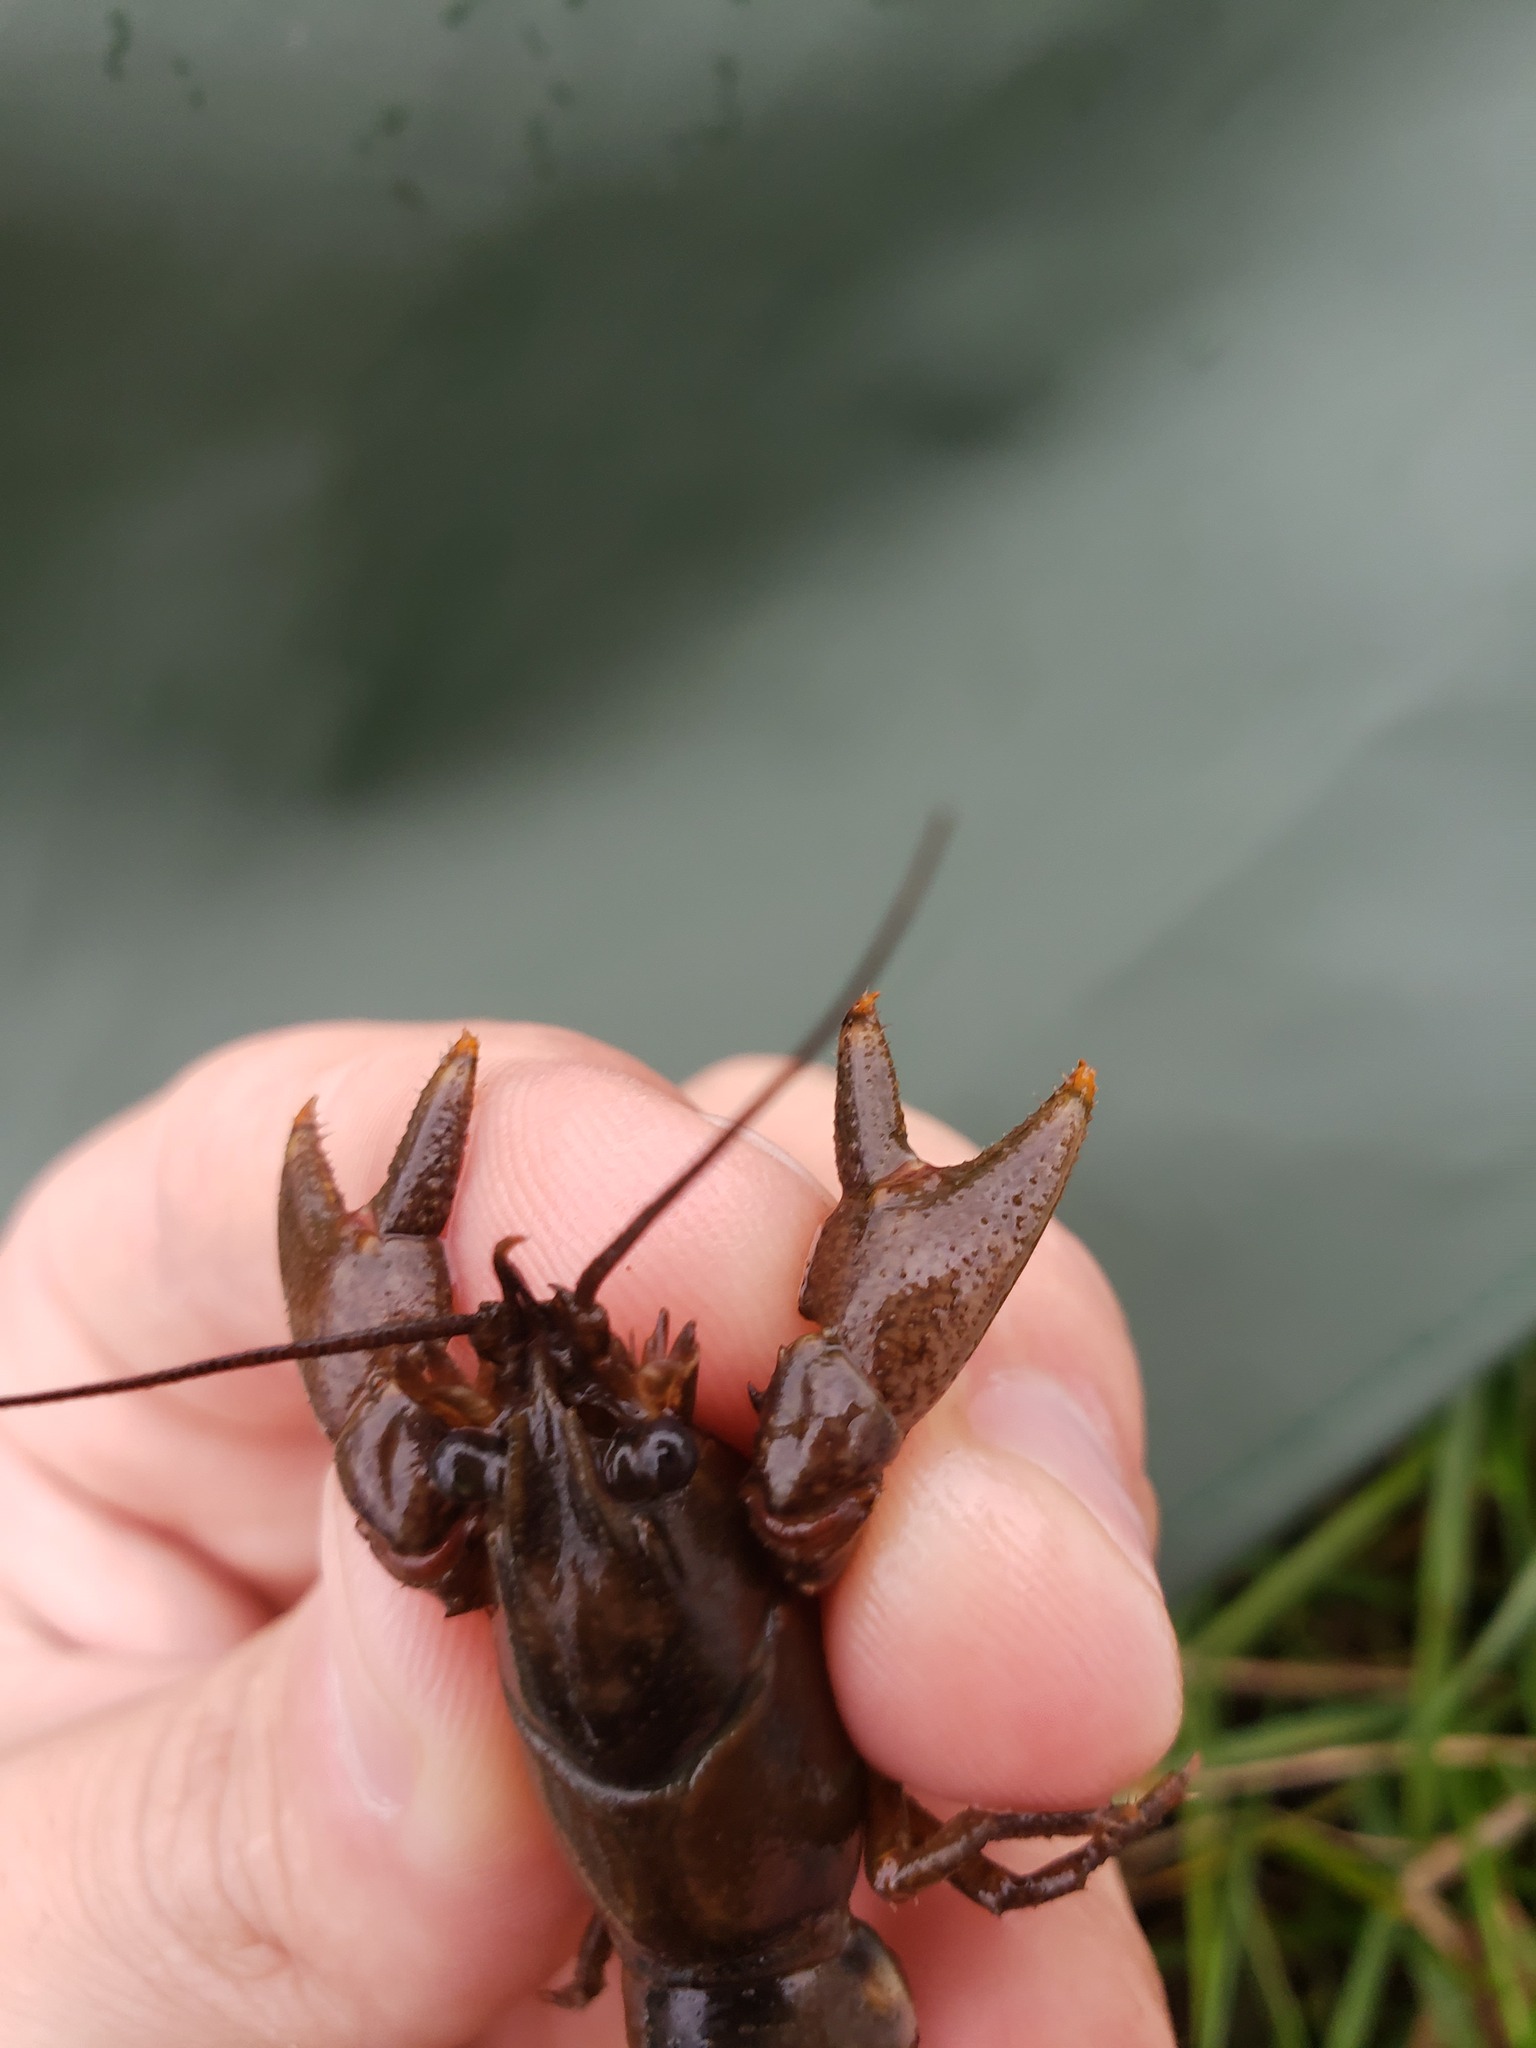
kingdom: Animalia
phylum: Arthropoda
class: Malacostraca
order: Decapoda
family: Cambaridae
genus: Faxonius
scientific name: Faxonius propinquus
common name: Northern clearwater crayfish
